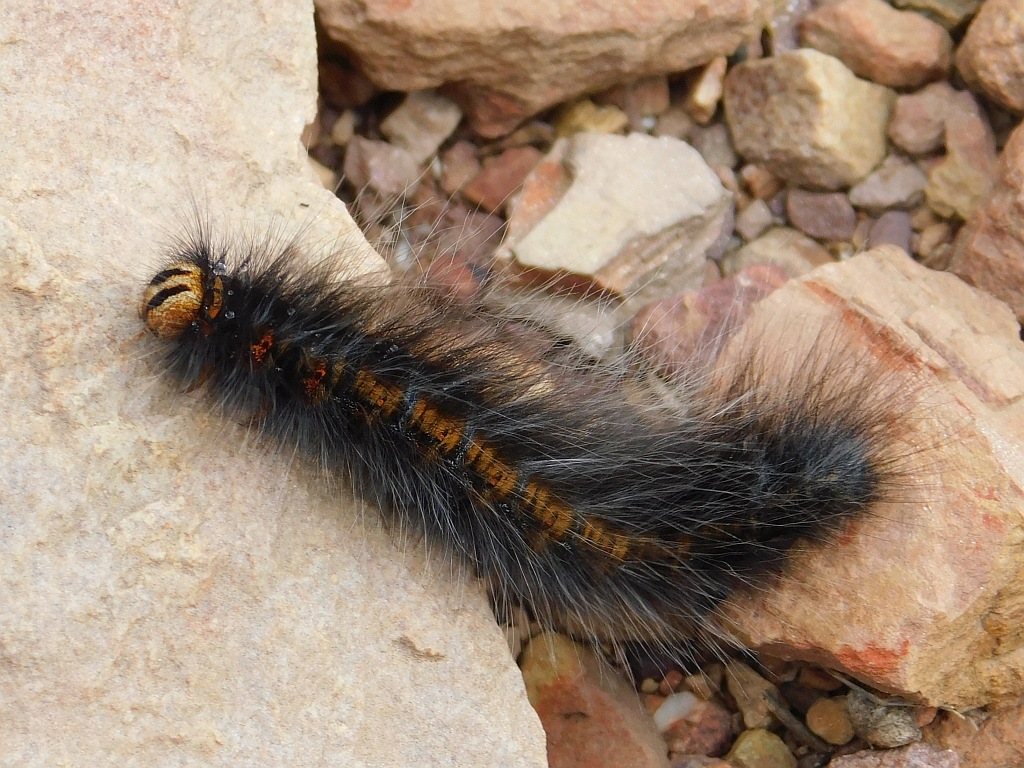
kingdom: Animalia
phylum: Arthropoda
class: Insecta
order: Lepidoptera
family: Lasiocampidae
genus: Mesocelis
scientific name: Mesocelis monticola
